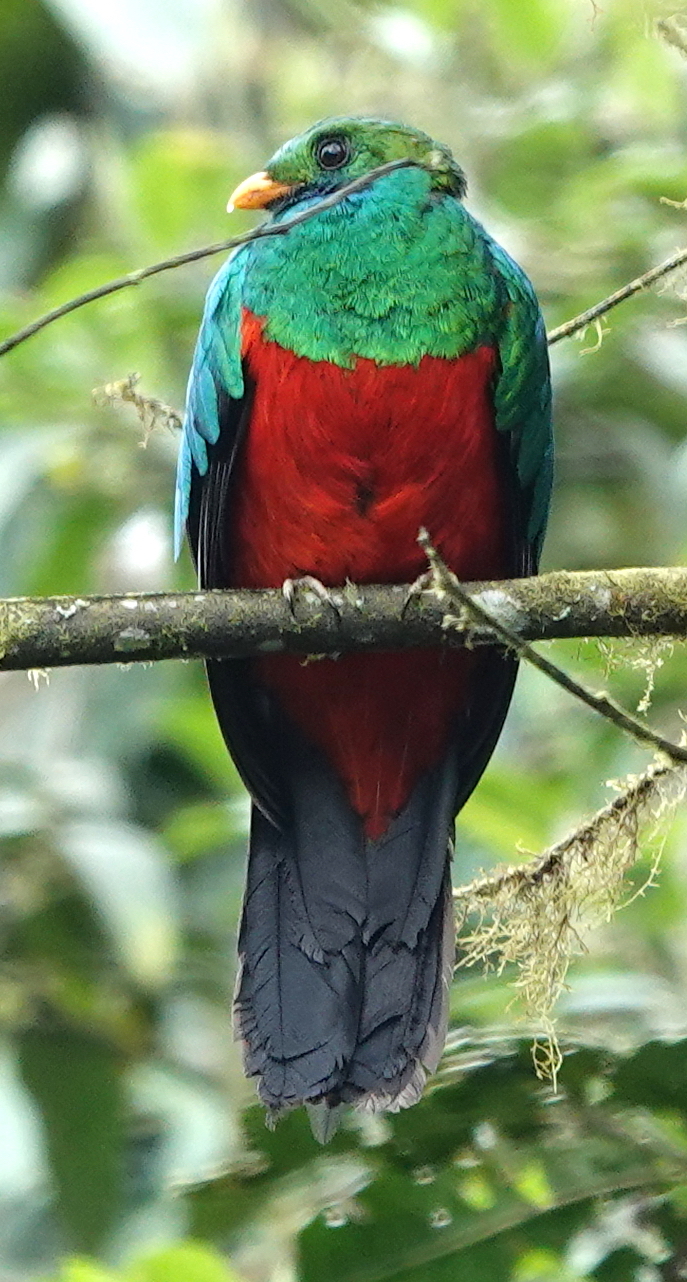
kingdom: Animalia
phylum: Chordata
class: Aves
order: Trogoniformes
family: Trogonidae
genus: Pharomachrus
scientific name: Pharomachrus auriceps
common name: Golden-headed quetzal
